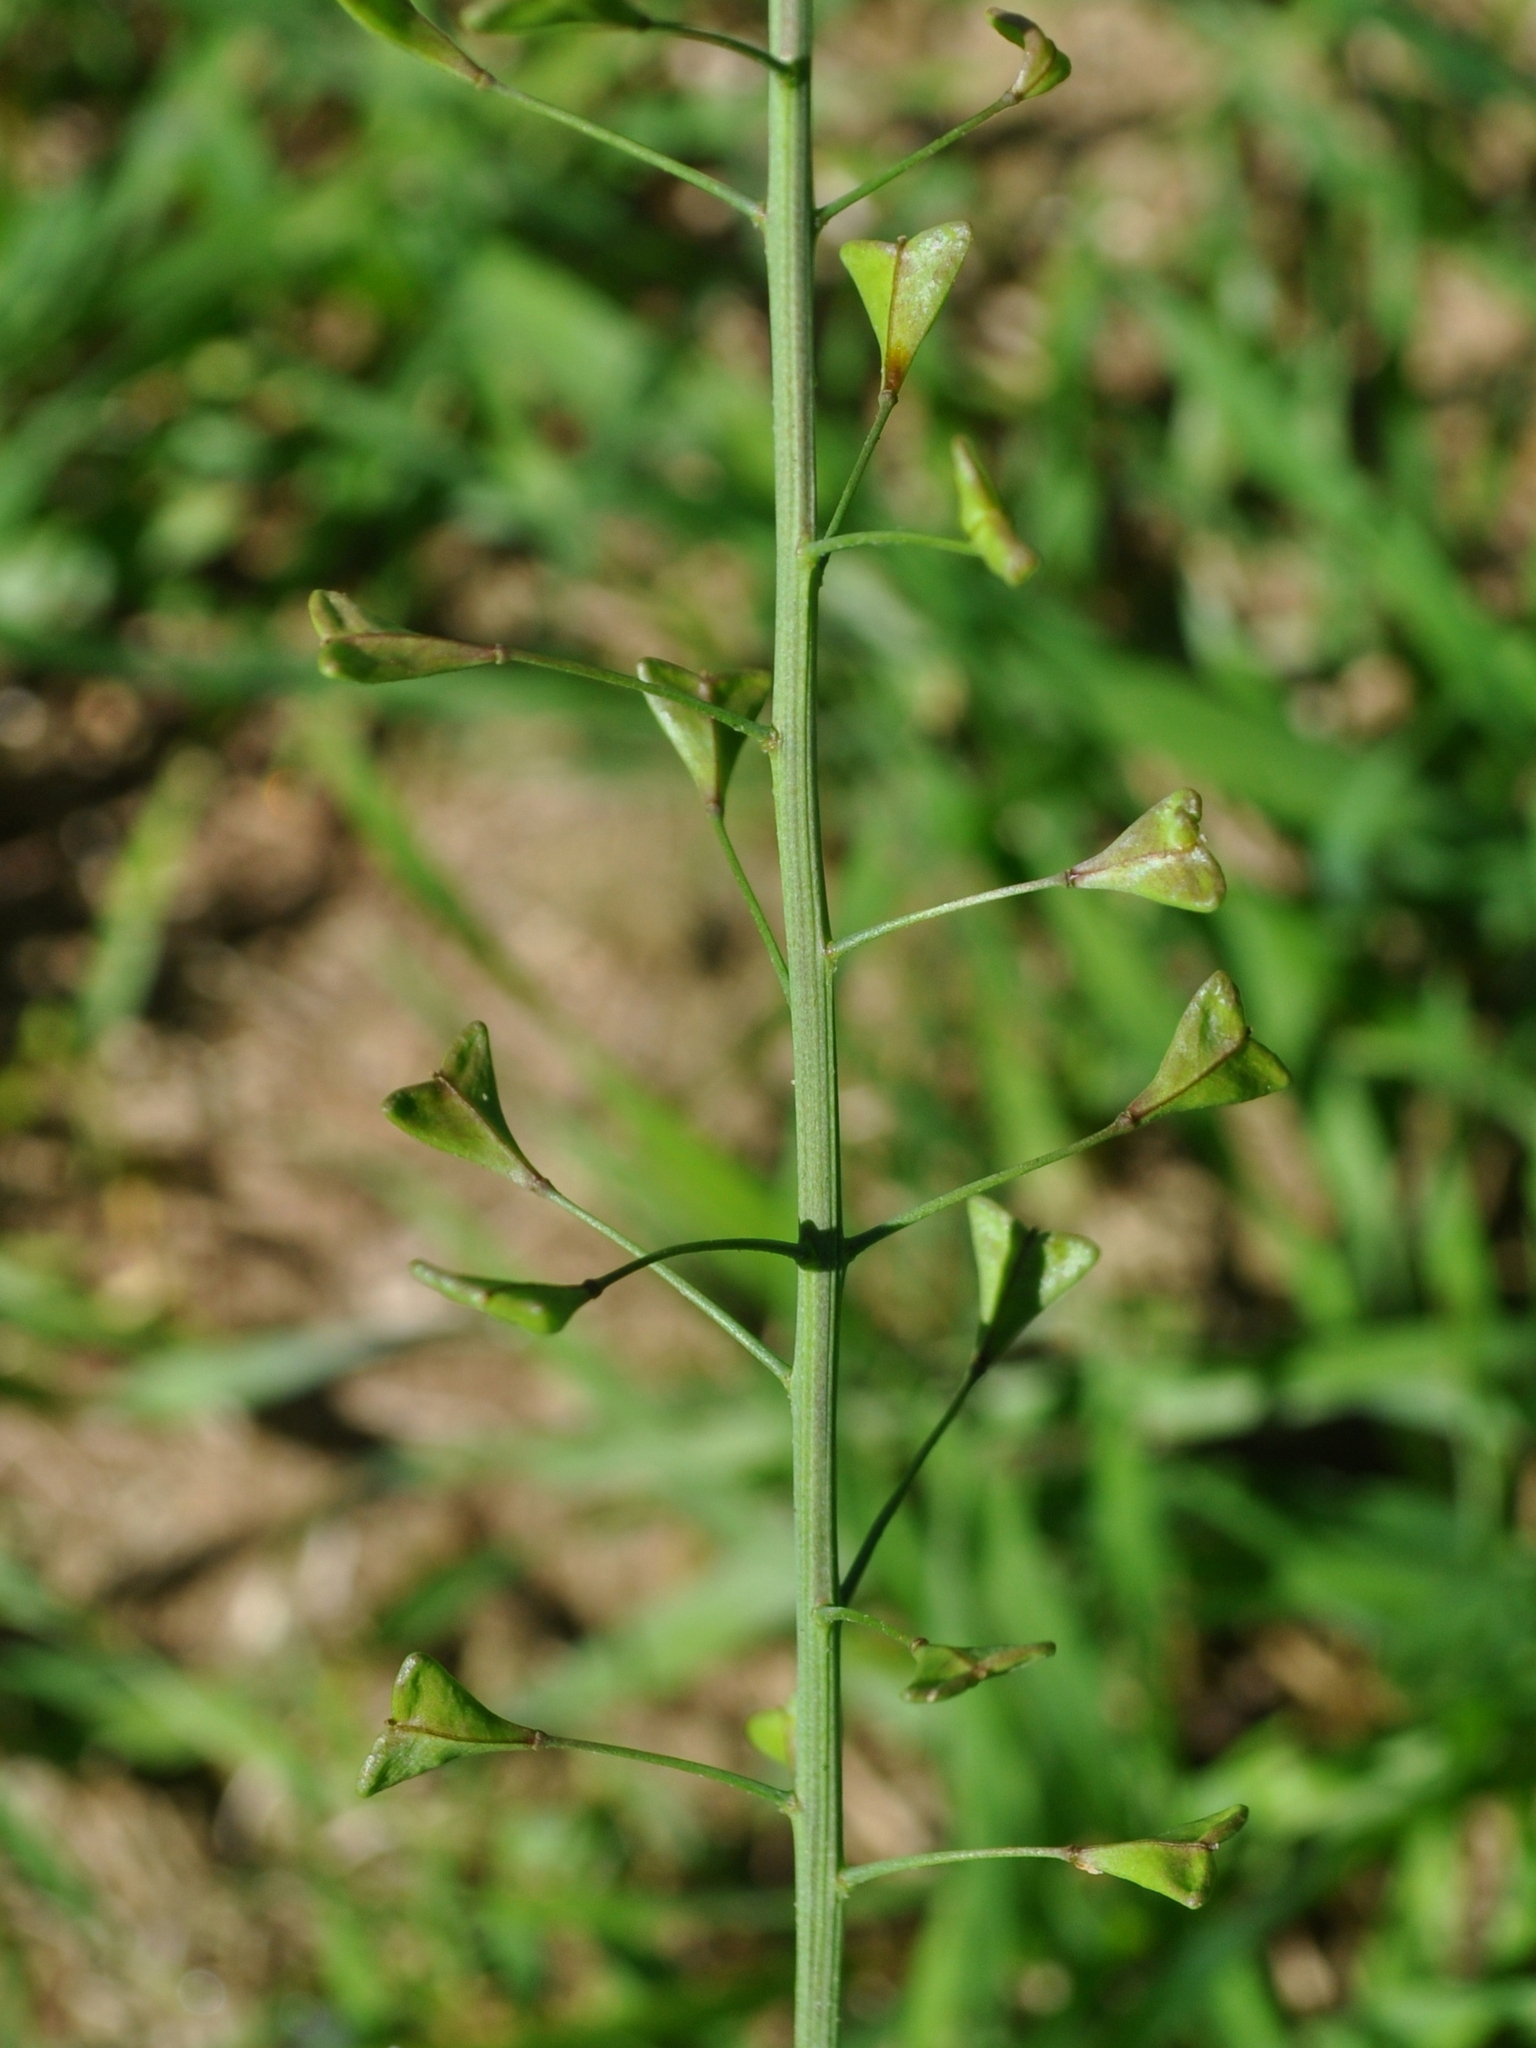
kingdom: Plantae
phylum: Tracheophyta
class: Magnoliopsida
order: Brassicales
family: Brassicaceae
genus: Capsella
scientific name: Capsella bursa-pastoris
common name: Shepherd's purse
